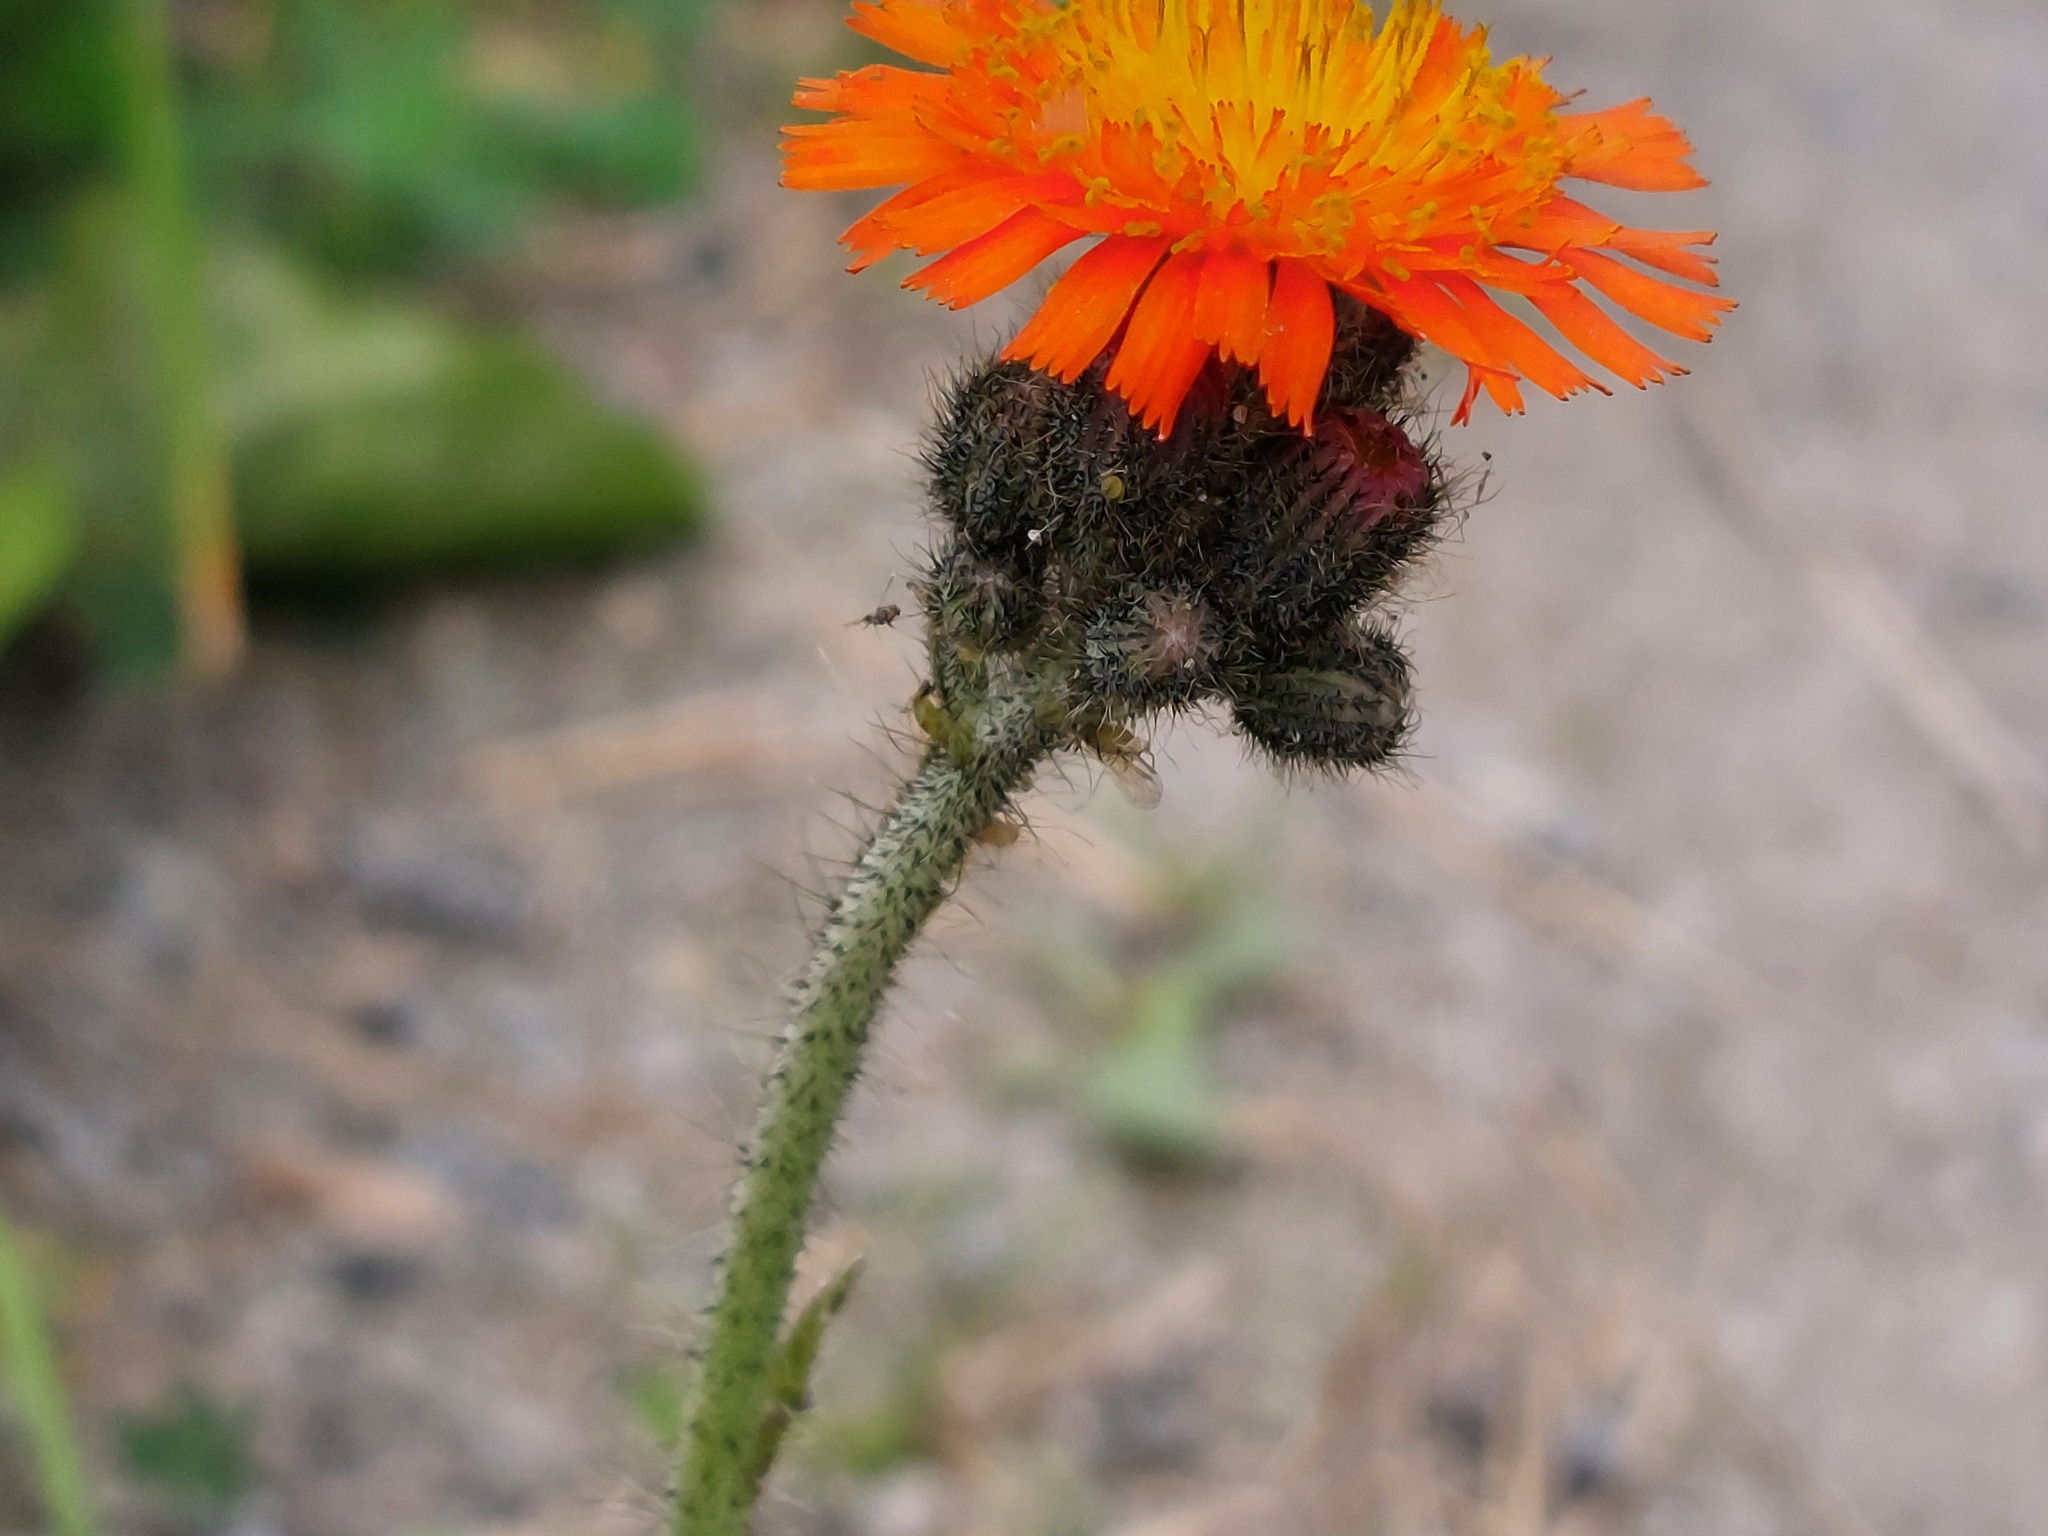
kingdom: Plantae
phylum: Tracheophyta
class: Magnoliopsida
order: Asterales
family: Asteraceae
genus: Pilosella
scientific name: Pilosella aurantiaca
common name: Fox-and-cubs
